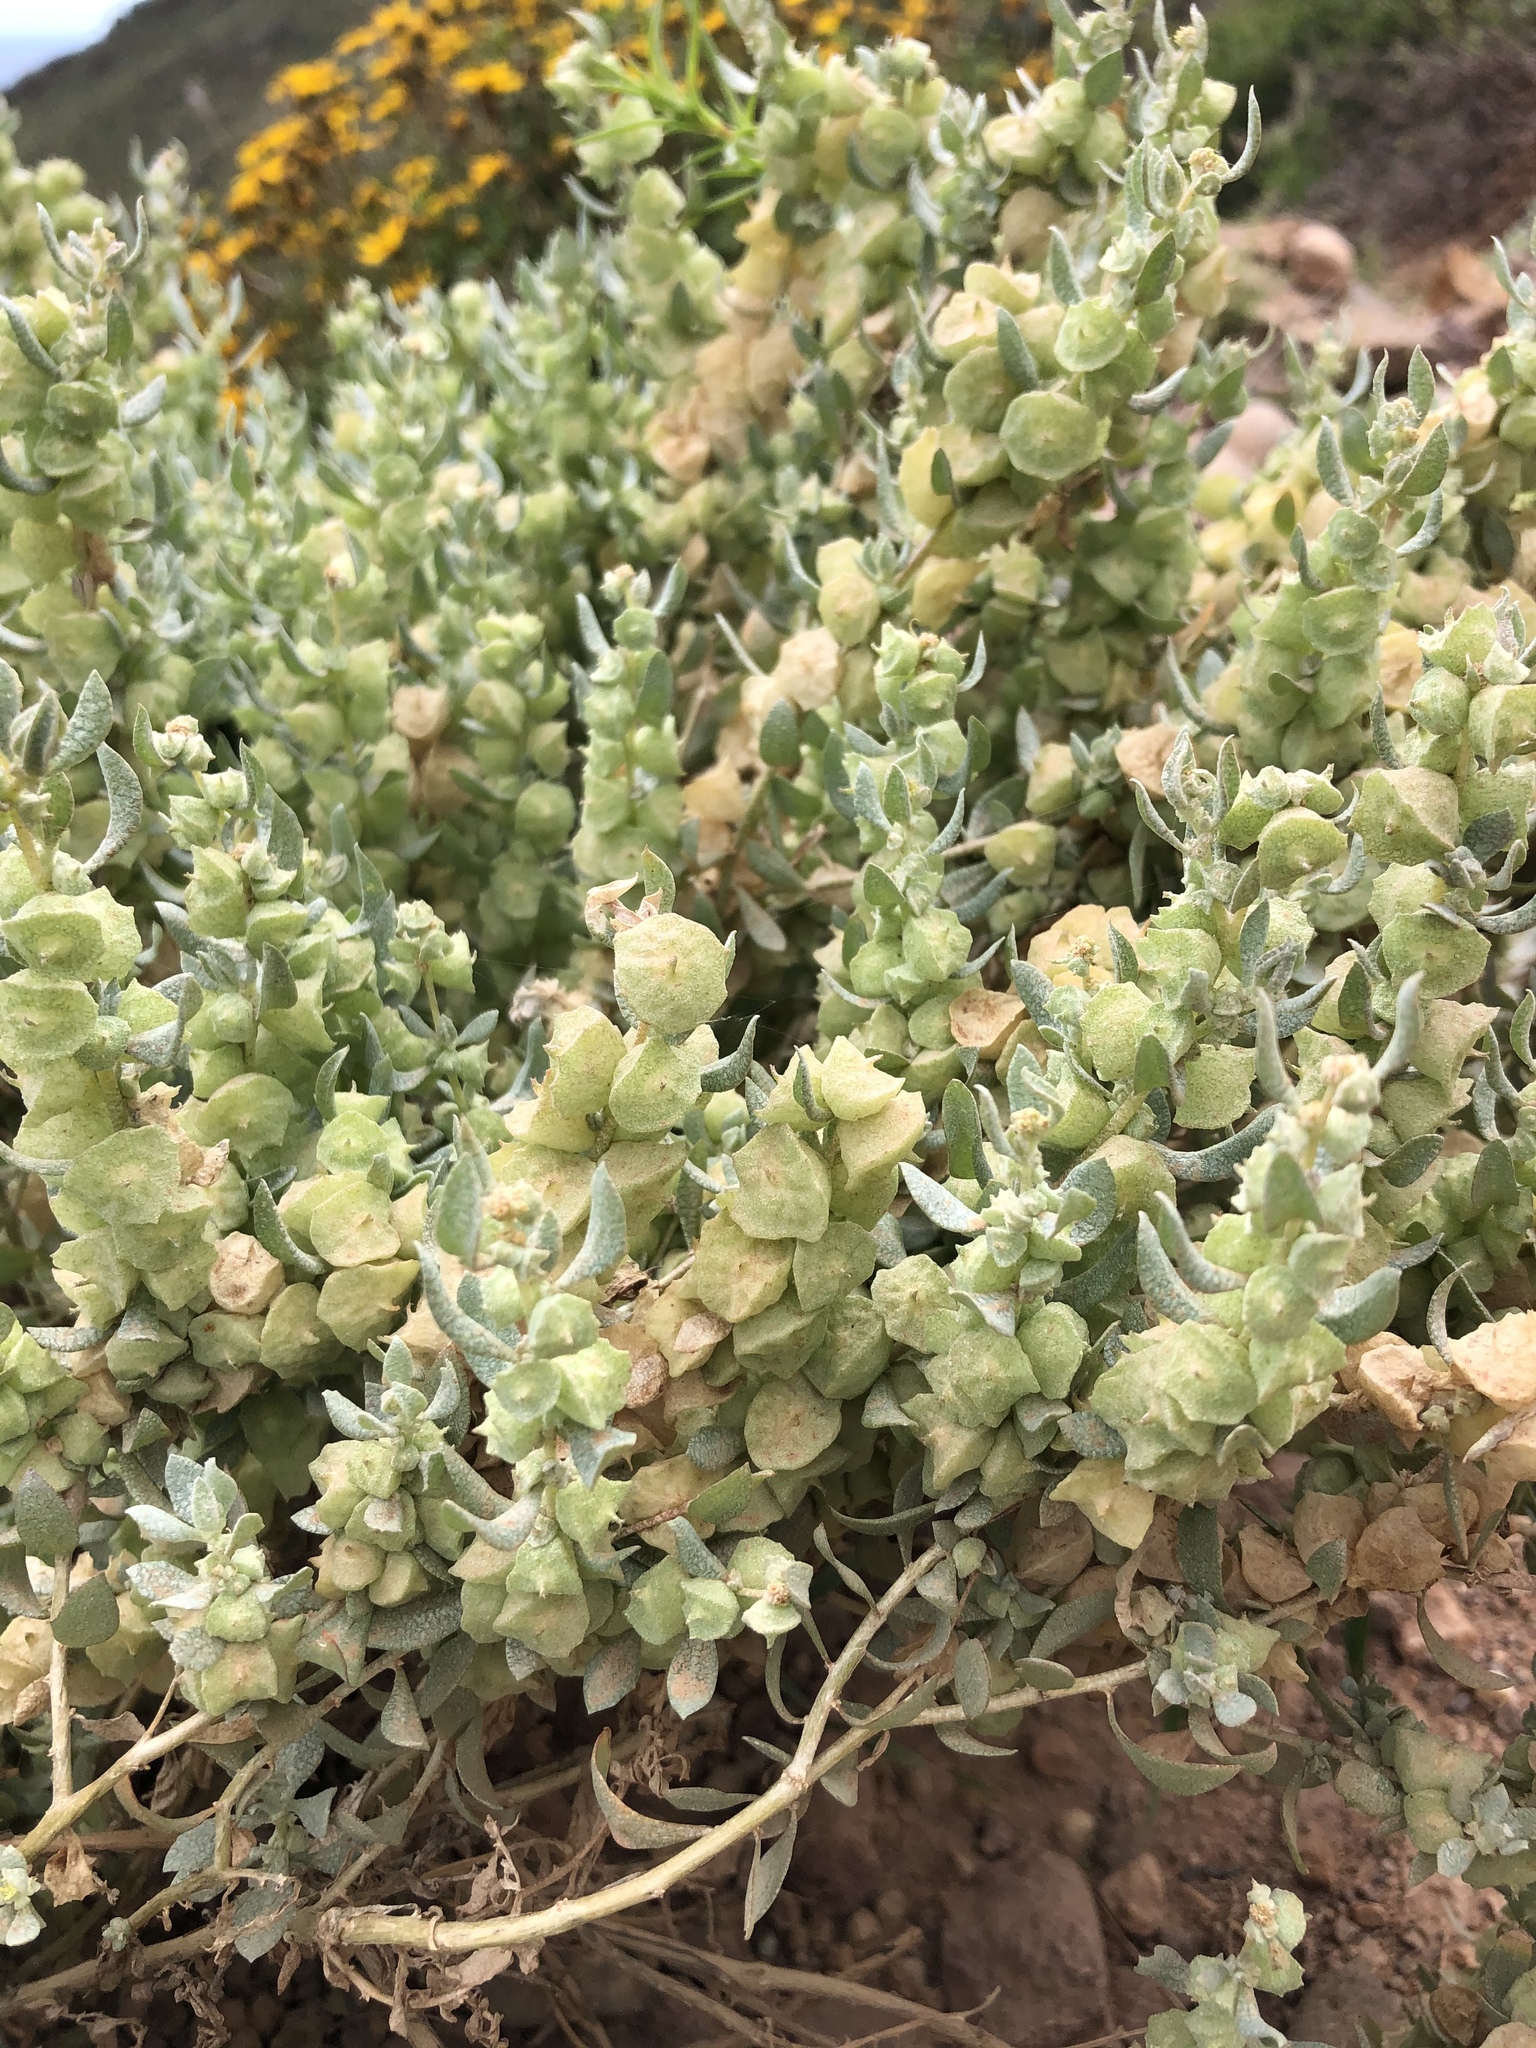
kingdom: Plantae
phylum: Tracheophyta
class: Magnoliopsida
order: Caryophyllales
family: Amaranthaceae
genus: Atriplex
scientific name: Atriplex lindleyi
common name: Lindley's saltbush
